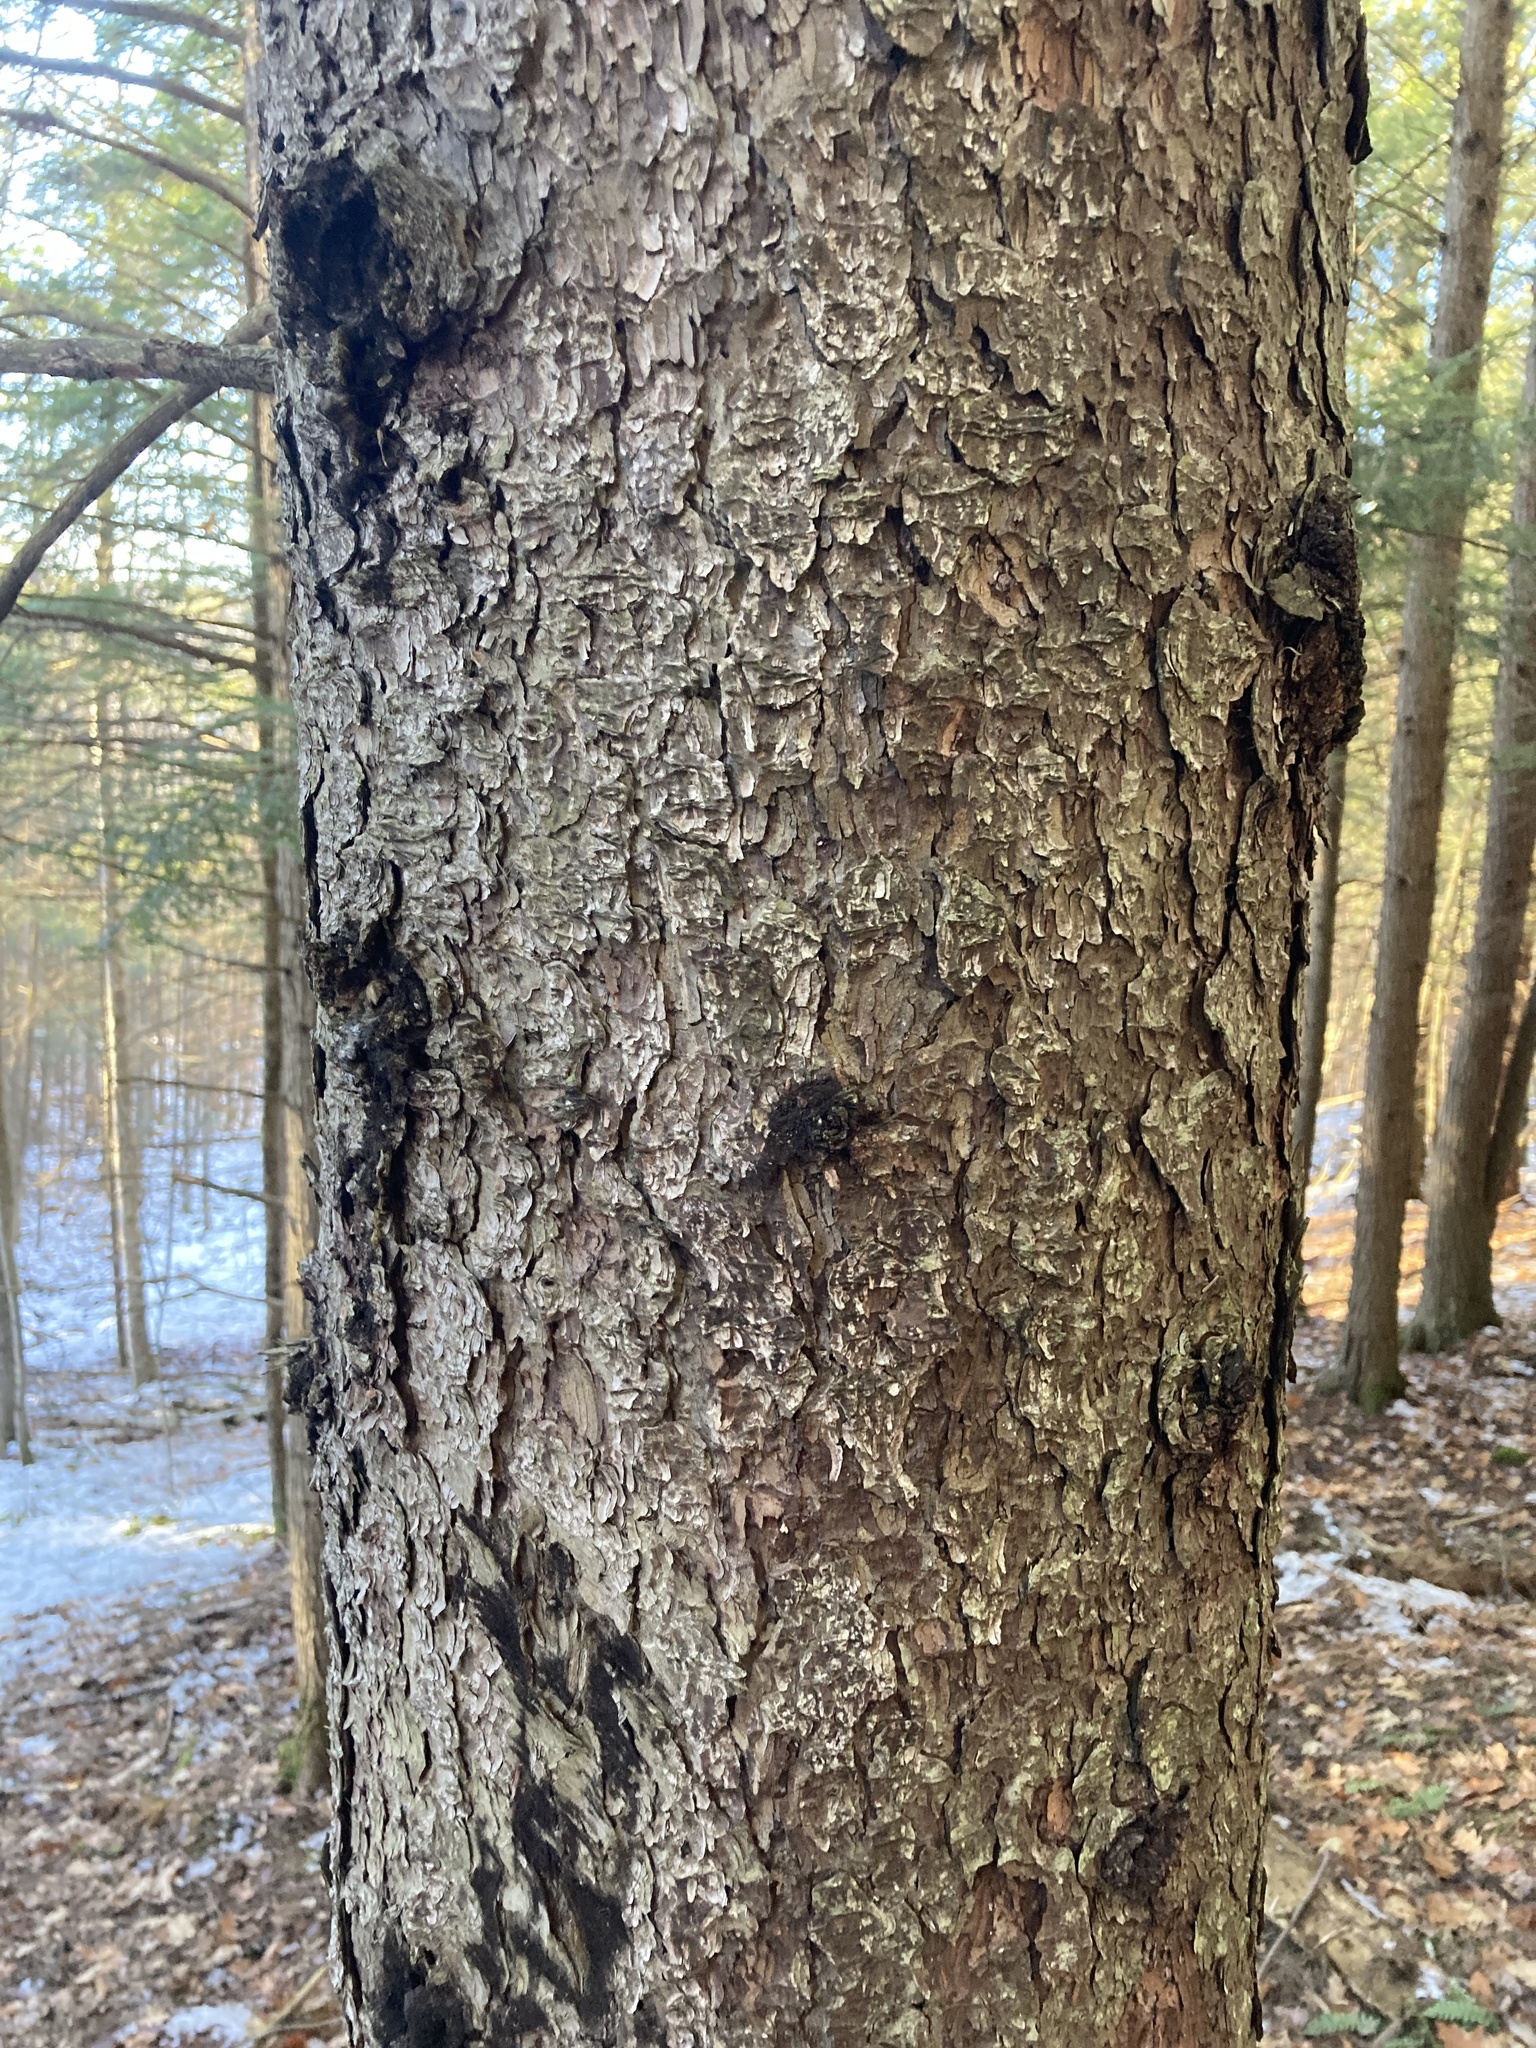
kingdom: Plantae
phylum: Tracheophyta
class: Pinopsida
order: Pinales
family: Pinaceae
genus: Picea
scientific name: Picea rubens
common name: Red spruce
